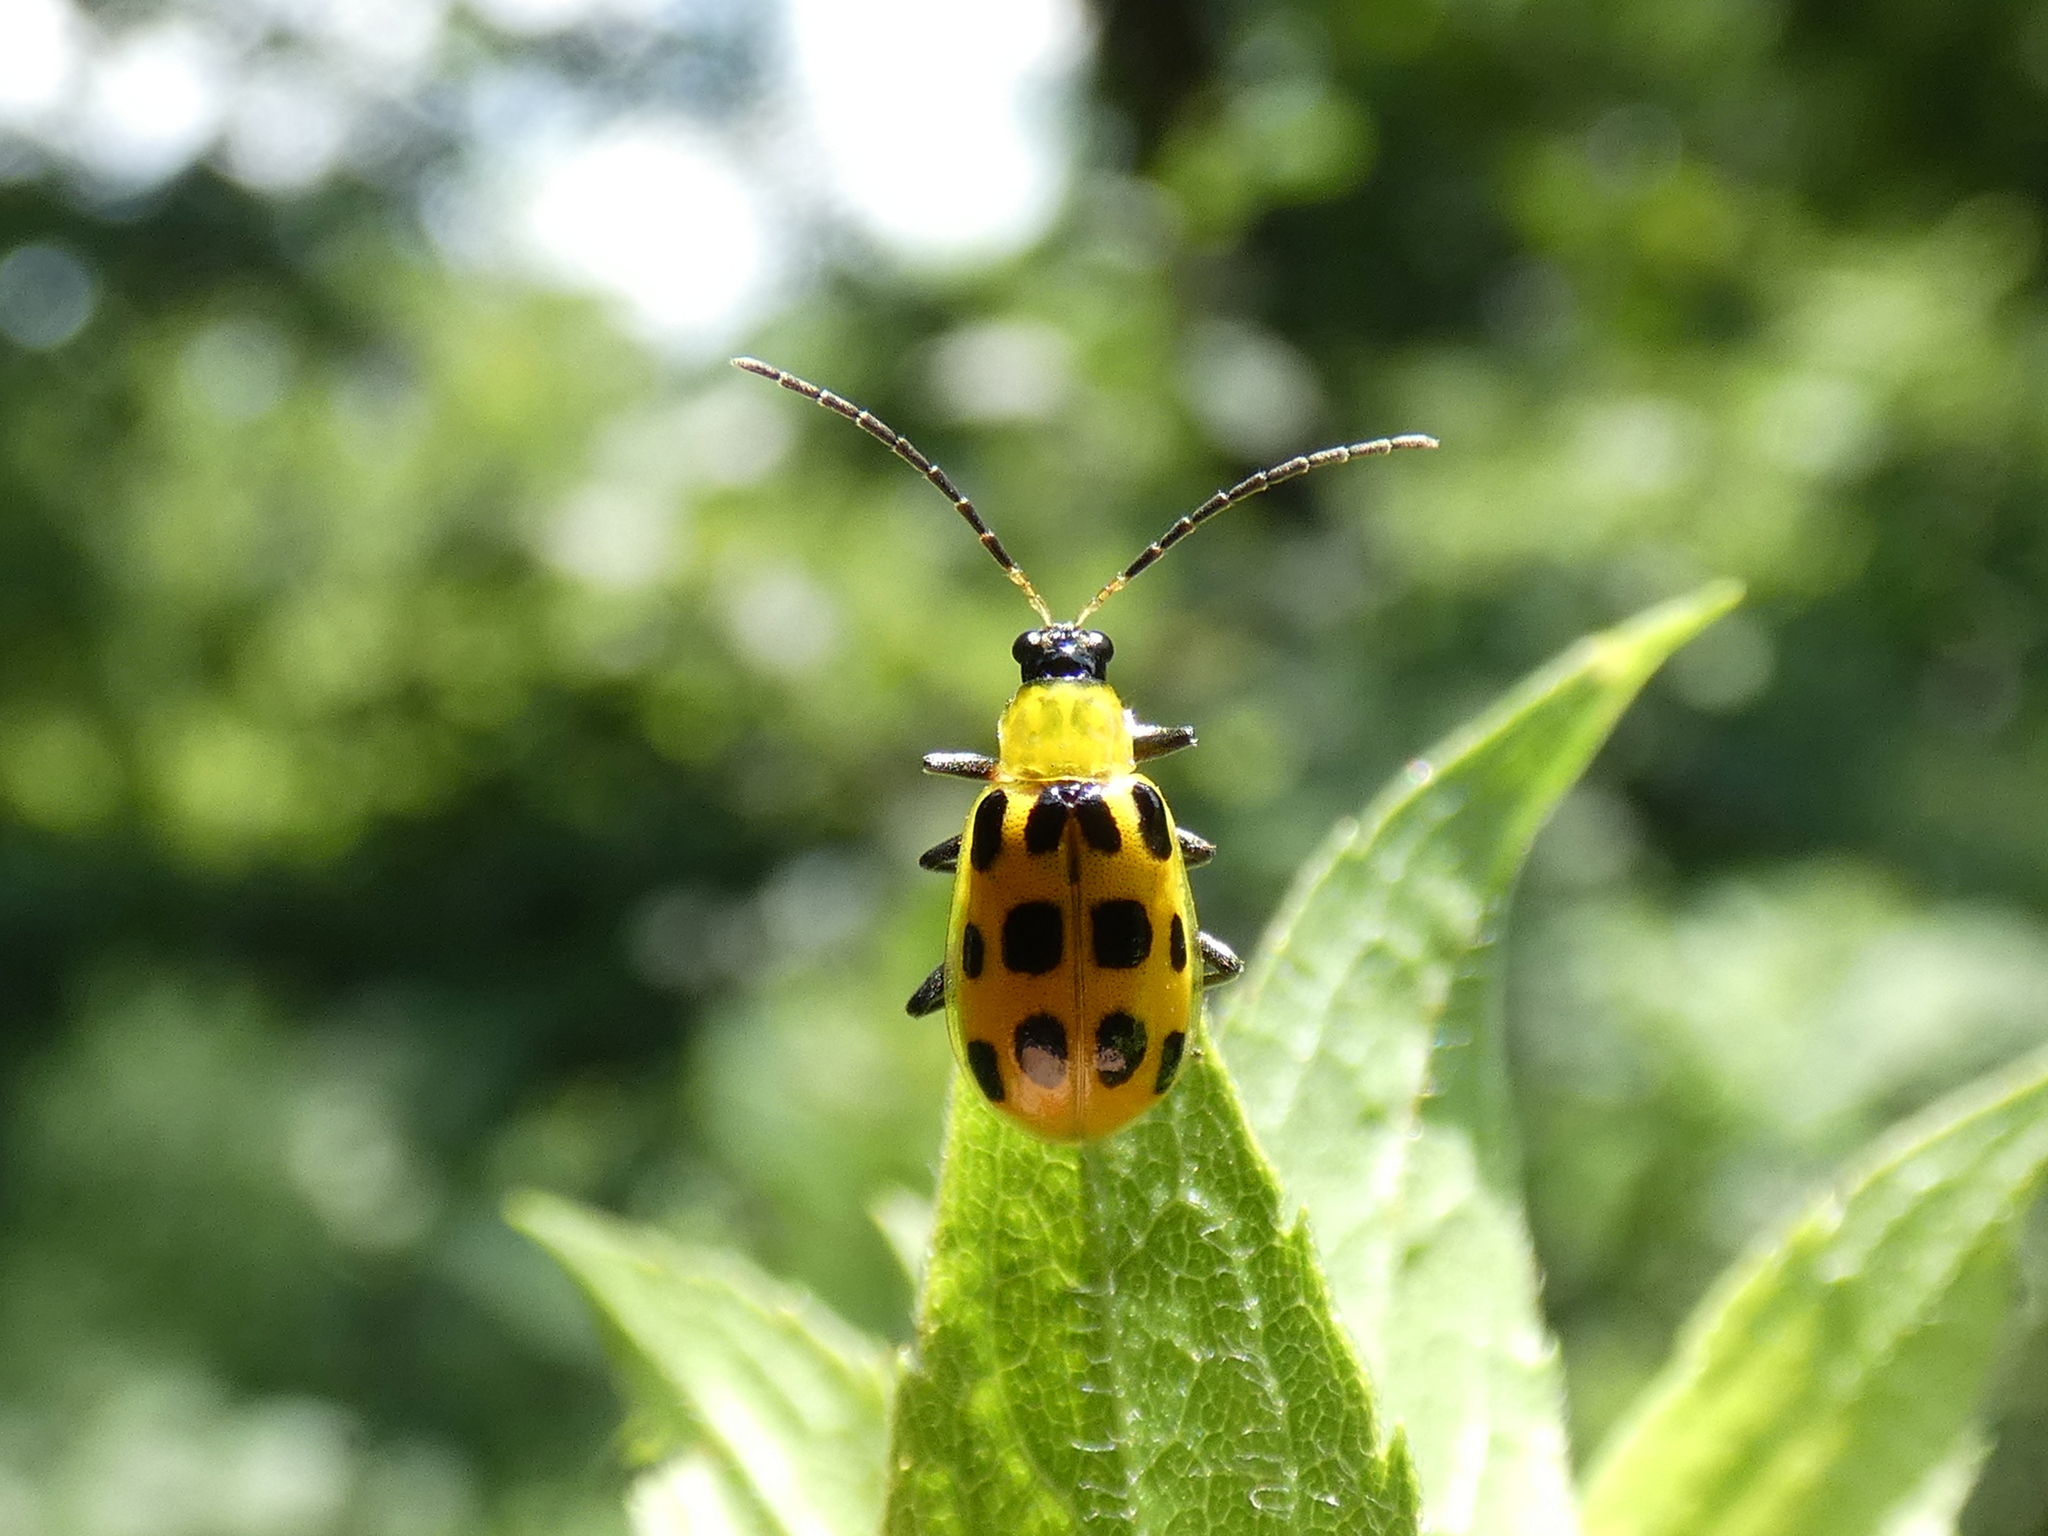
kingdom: Animalia
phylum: Arthropoda
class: Insecta
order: Coleoptera
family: Chrysomelidae
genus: Diabrotica
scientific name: Diabrotica undecimpunctata
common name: Spotted cucumber beetle
